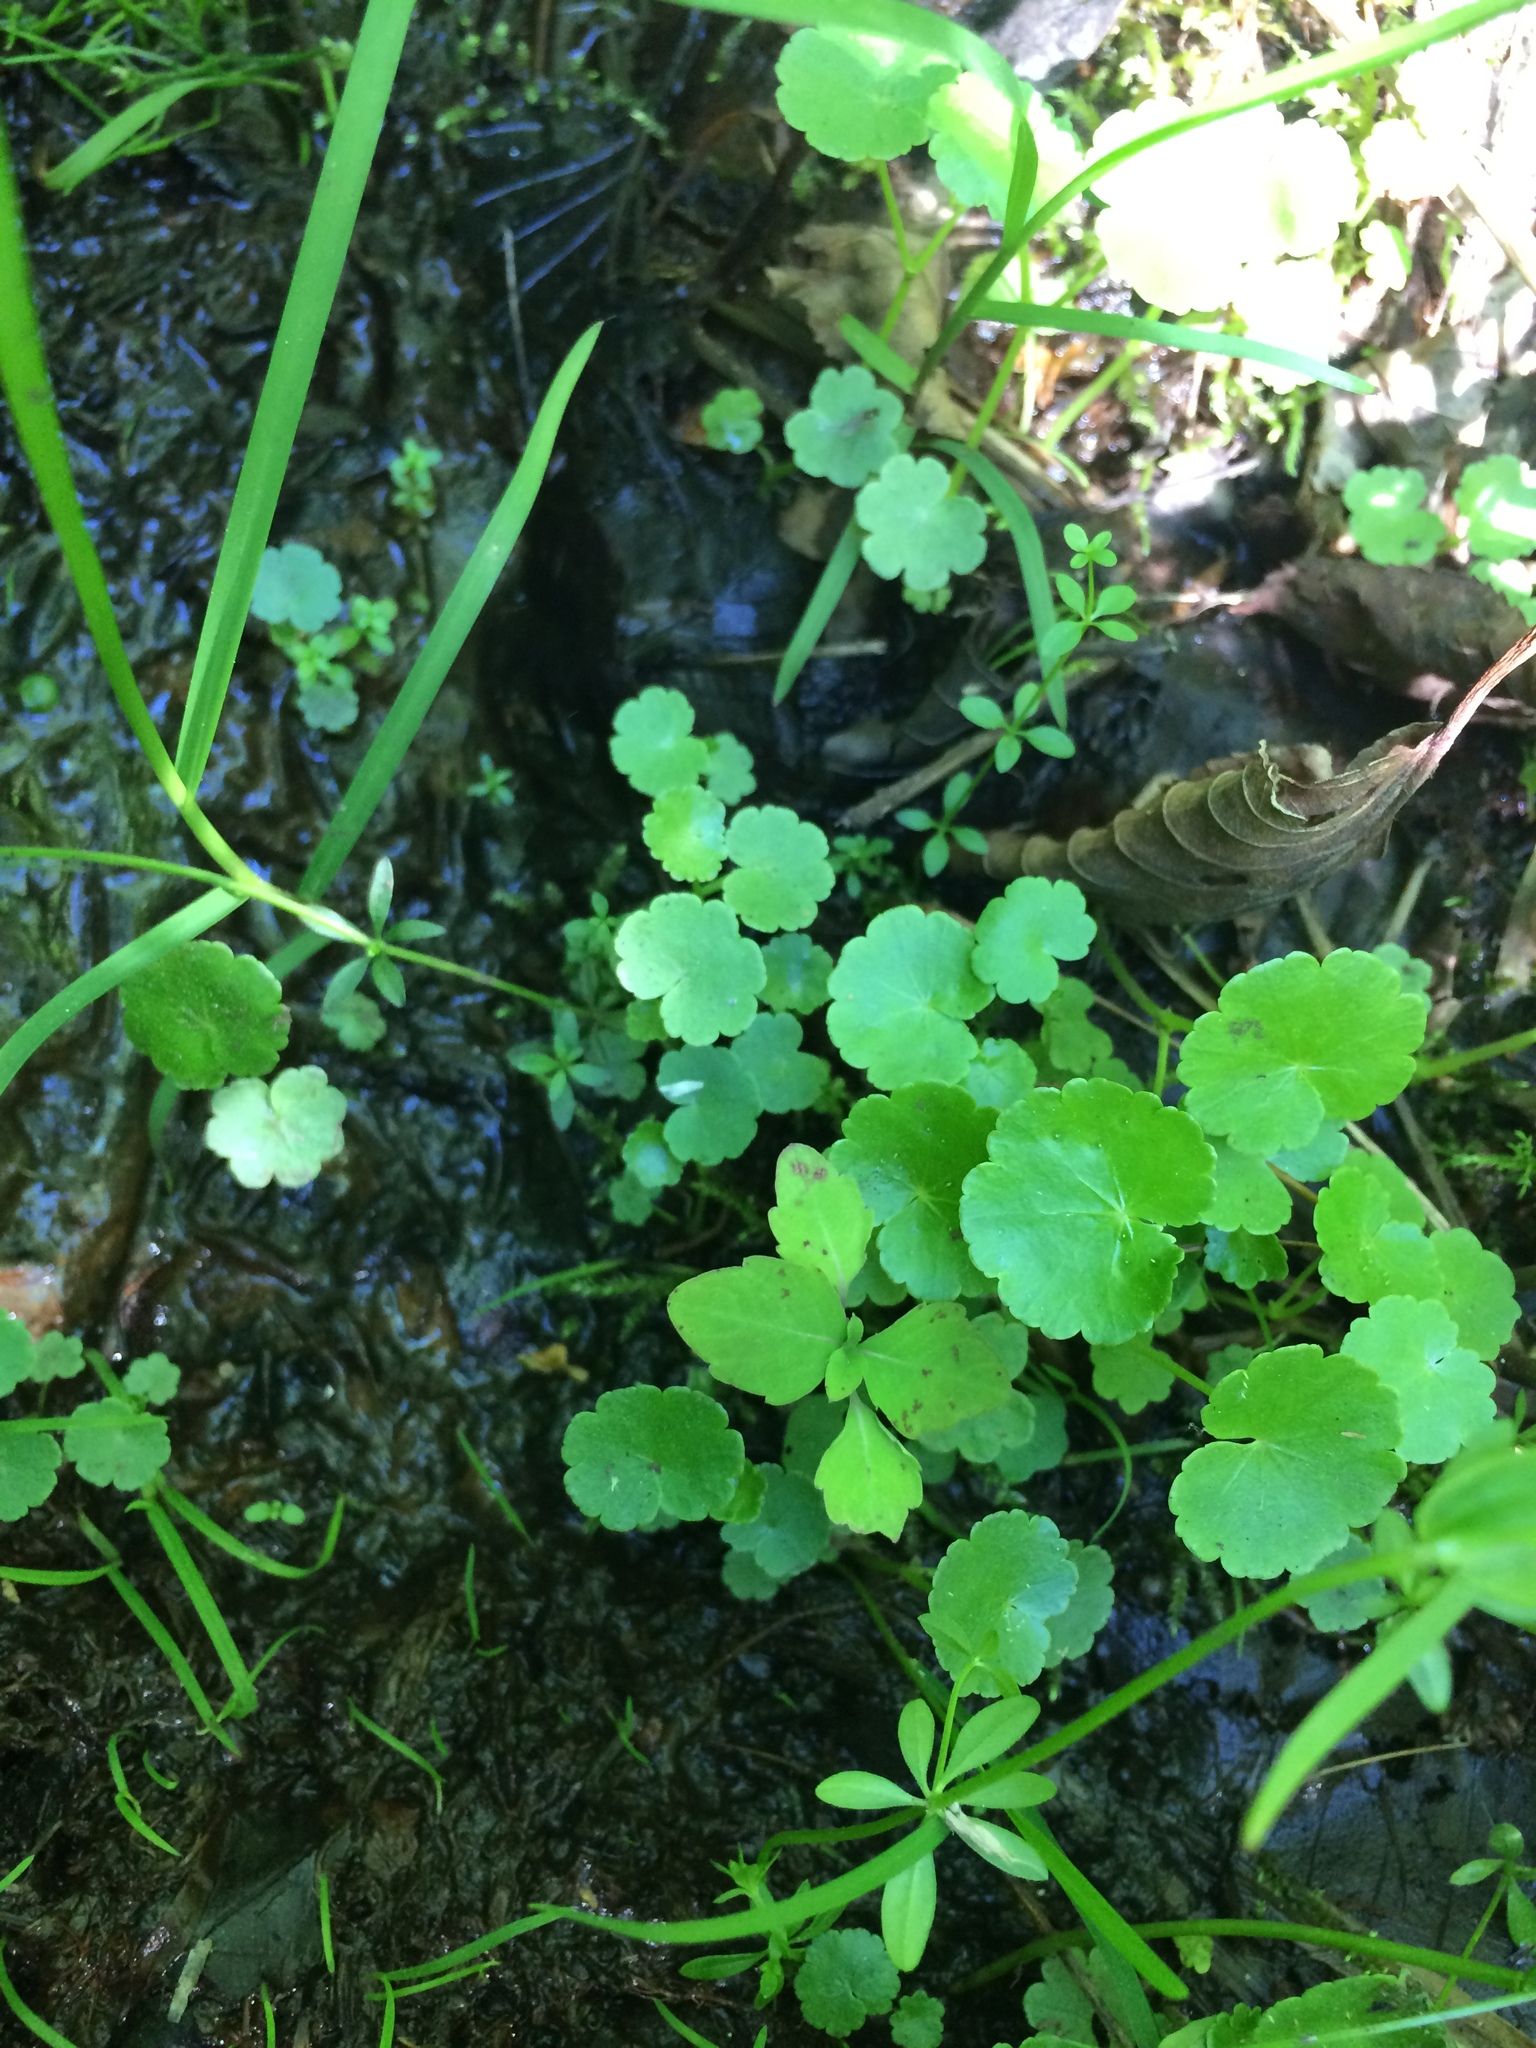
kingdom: Plantae
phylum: Tracheophyta
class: Magnoliopsida
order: Apiales
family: Araliaceae
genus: Hydrocotyle
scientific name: Hydrocotyle americana
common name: American water-pennywort
